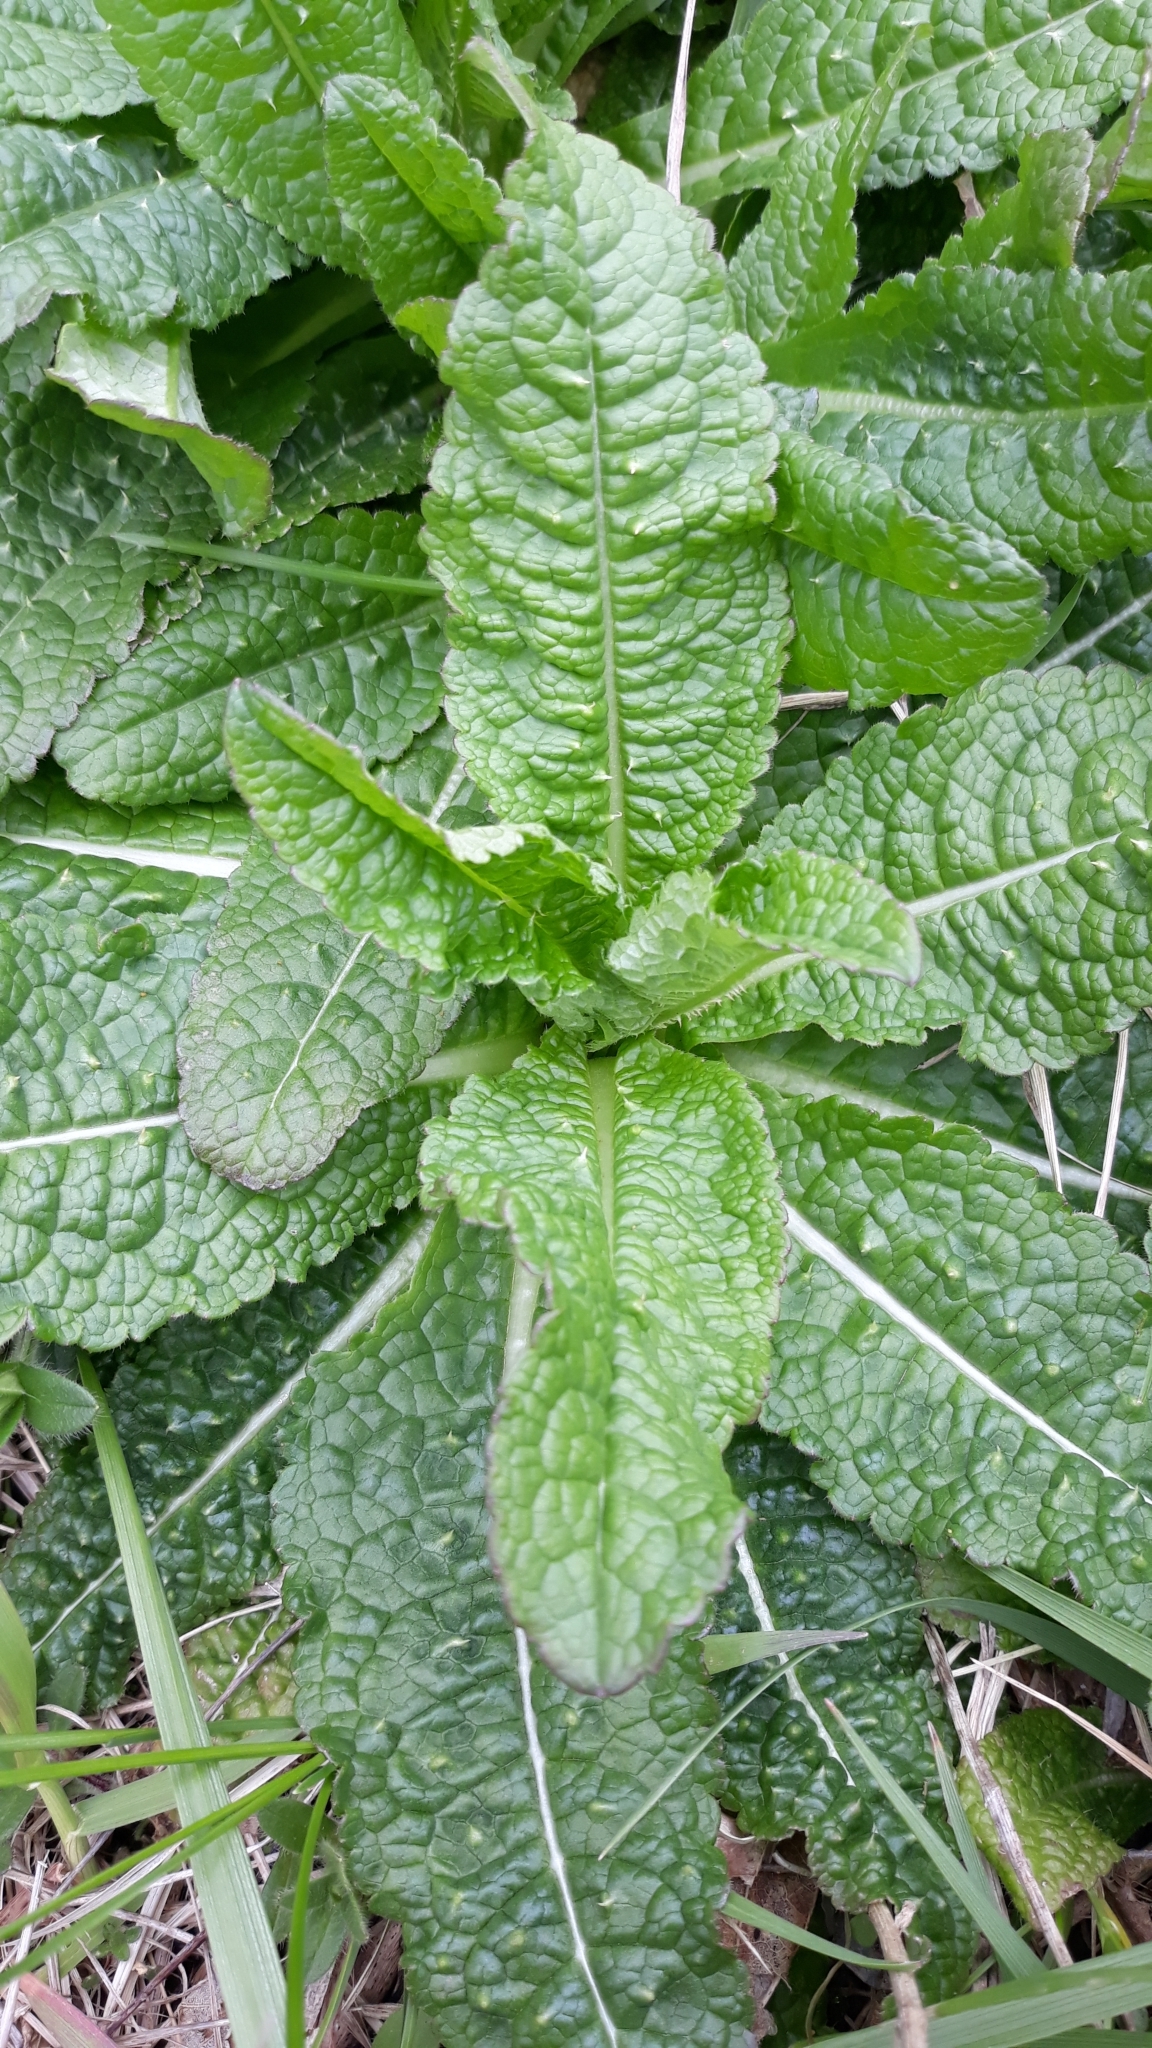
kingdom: Plantae
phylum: Tracheophyta
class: Magnoliopsida
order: Dipsacales
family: Caprifoliaceae
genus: Dipsacus
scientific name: Dipsacus fullonum
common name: Teasel
